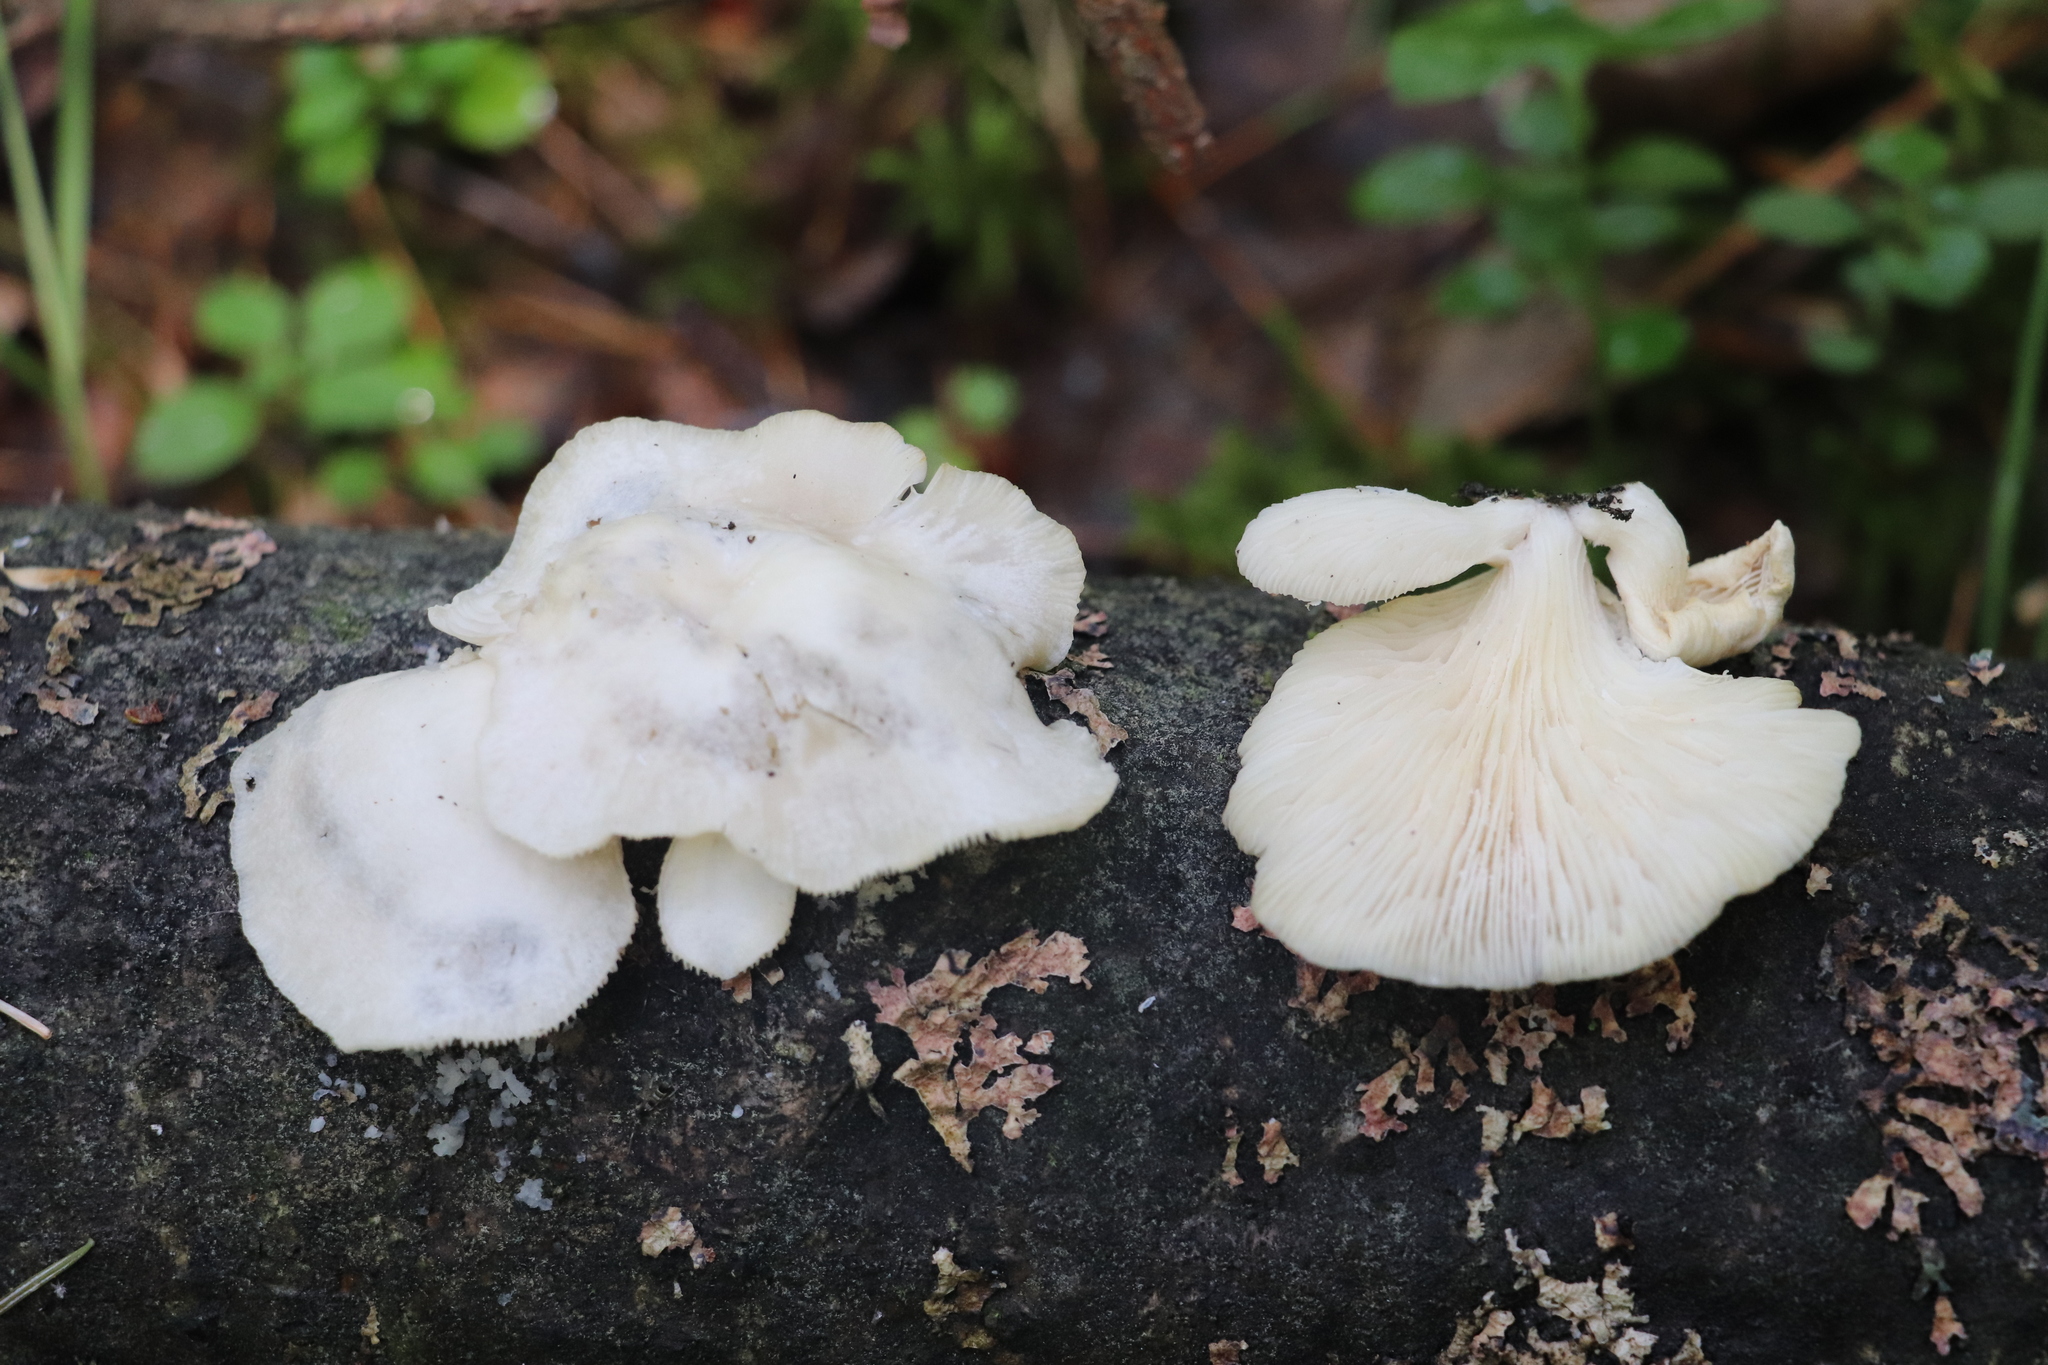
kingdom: Fungi
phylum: Basidiomycota
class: Agaricomycetes
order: Agaricales
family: Pleurotaceae
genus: Pleurotus
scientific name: Pleurotus pulmonarius
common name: Pale oyster
